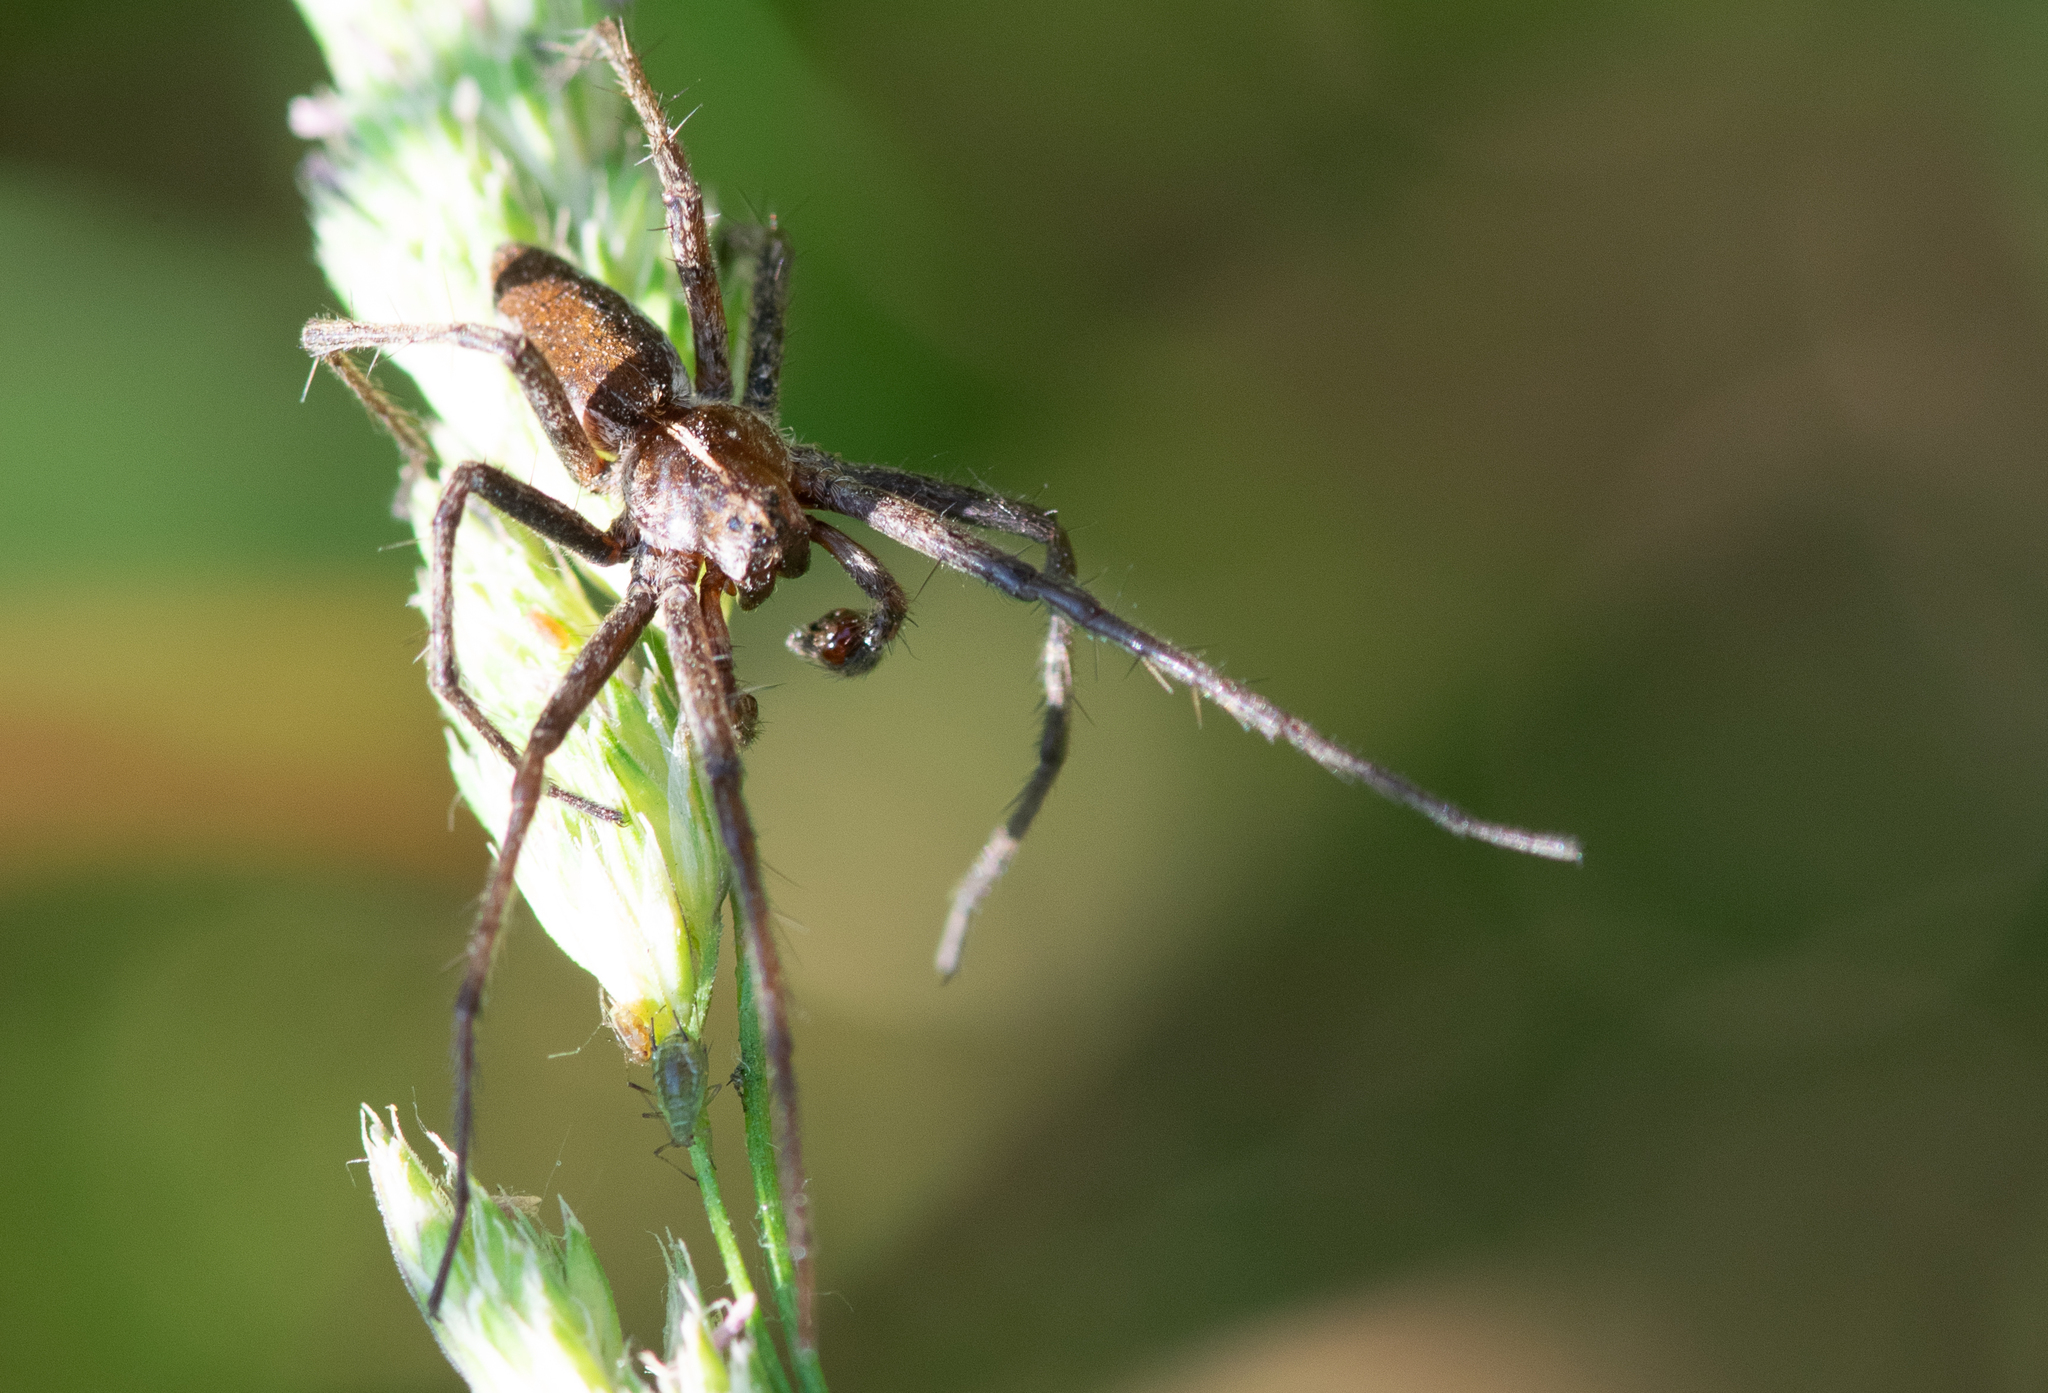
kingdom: Animalia
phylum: Arthropoda
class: Arachnida
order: Araneae
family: Pisauridae
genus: Pisaura
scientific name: Pisaura mirabilis
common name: Tent spider
